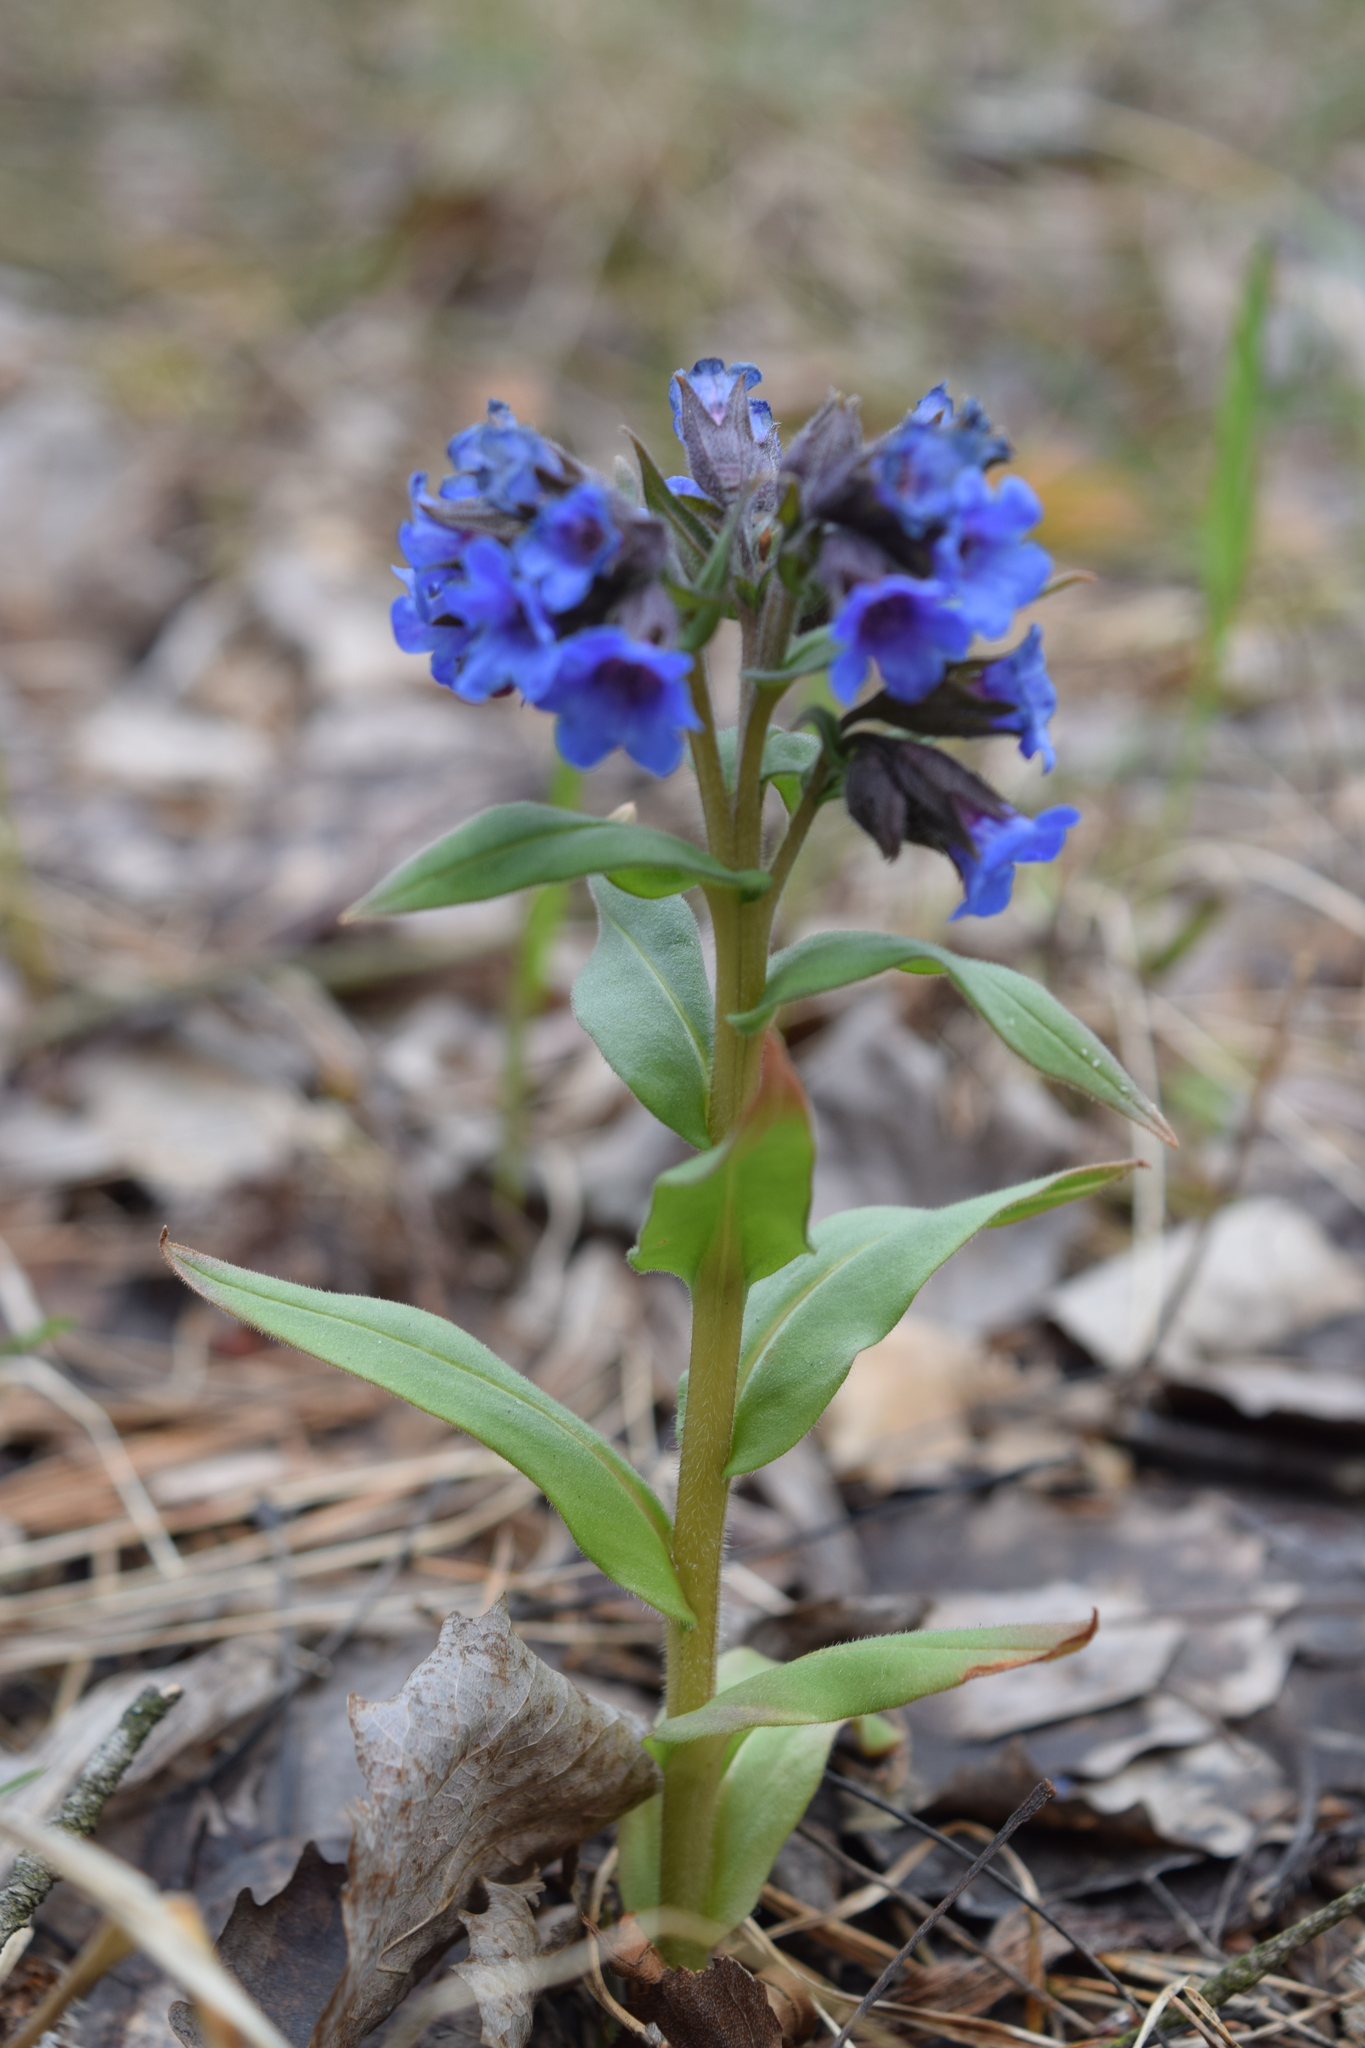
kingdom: Plantae
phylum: Tracheophyta
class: Magnoliopsida
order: Boraginales
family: Boraginaceae
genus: Pulmonaria
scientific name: Pulmonaria angustifolia
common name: Blue cowslip
